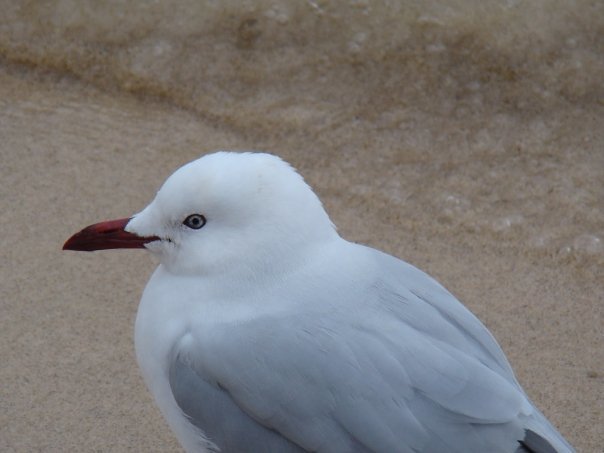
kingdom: Animalia
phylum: Chordata
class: Aves
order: Charadriiformes
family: Laridae
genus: Chroicocephalus
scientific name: Chroicocephalus novaehollandiae
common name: Silver gull
